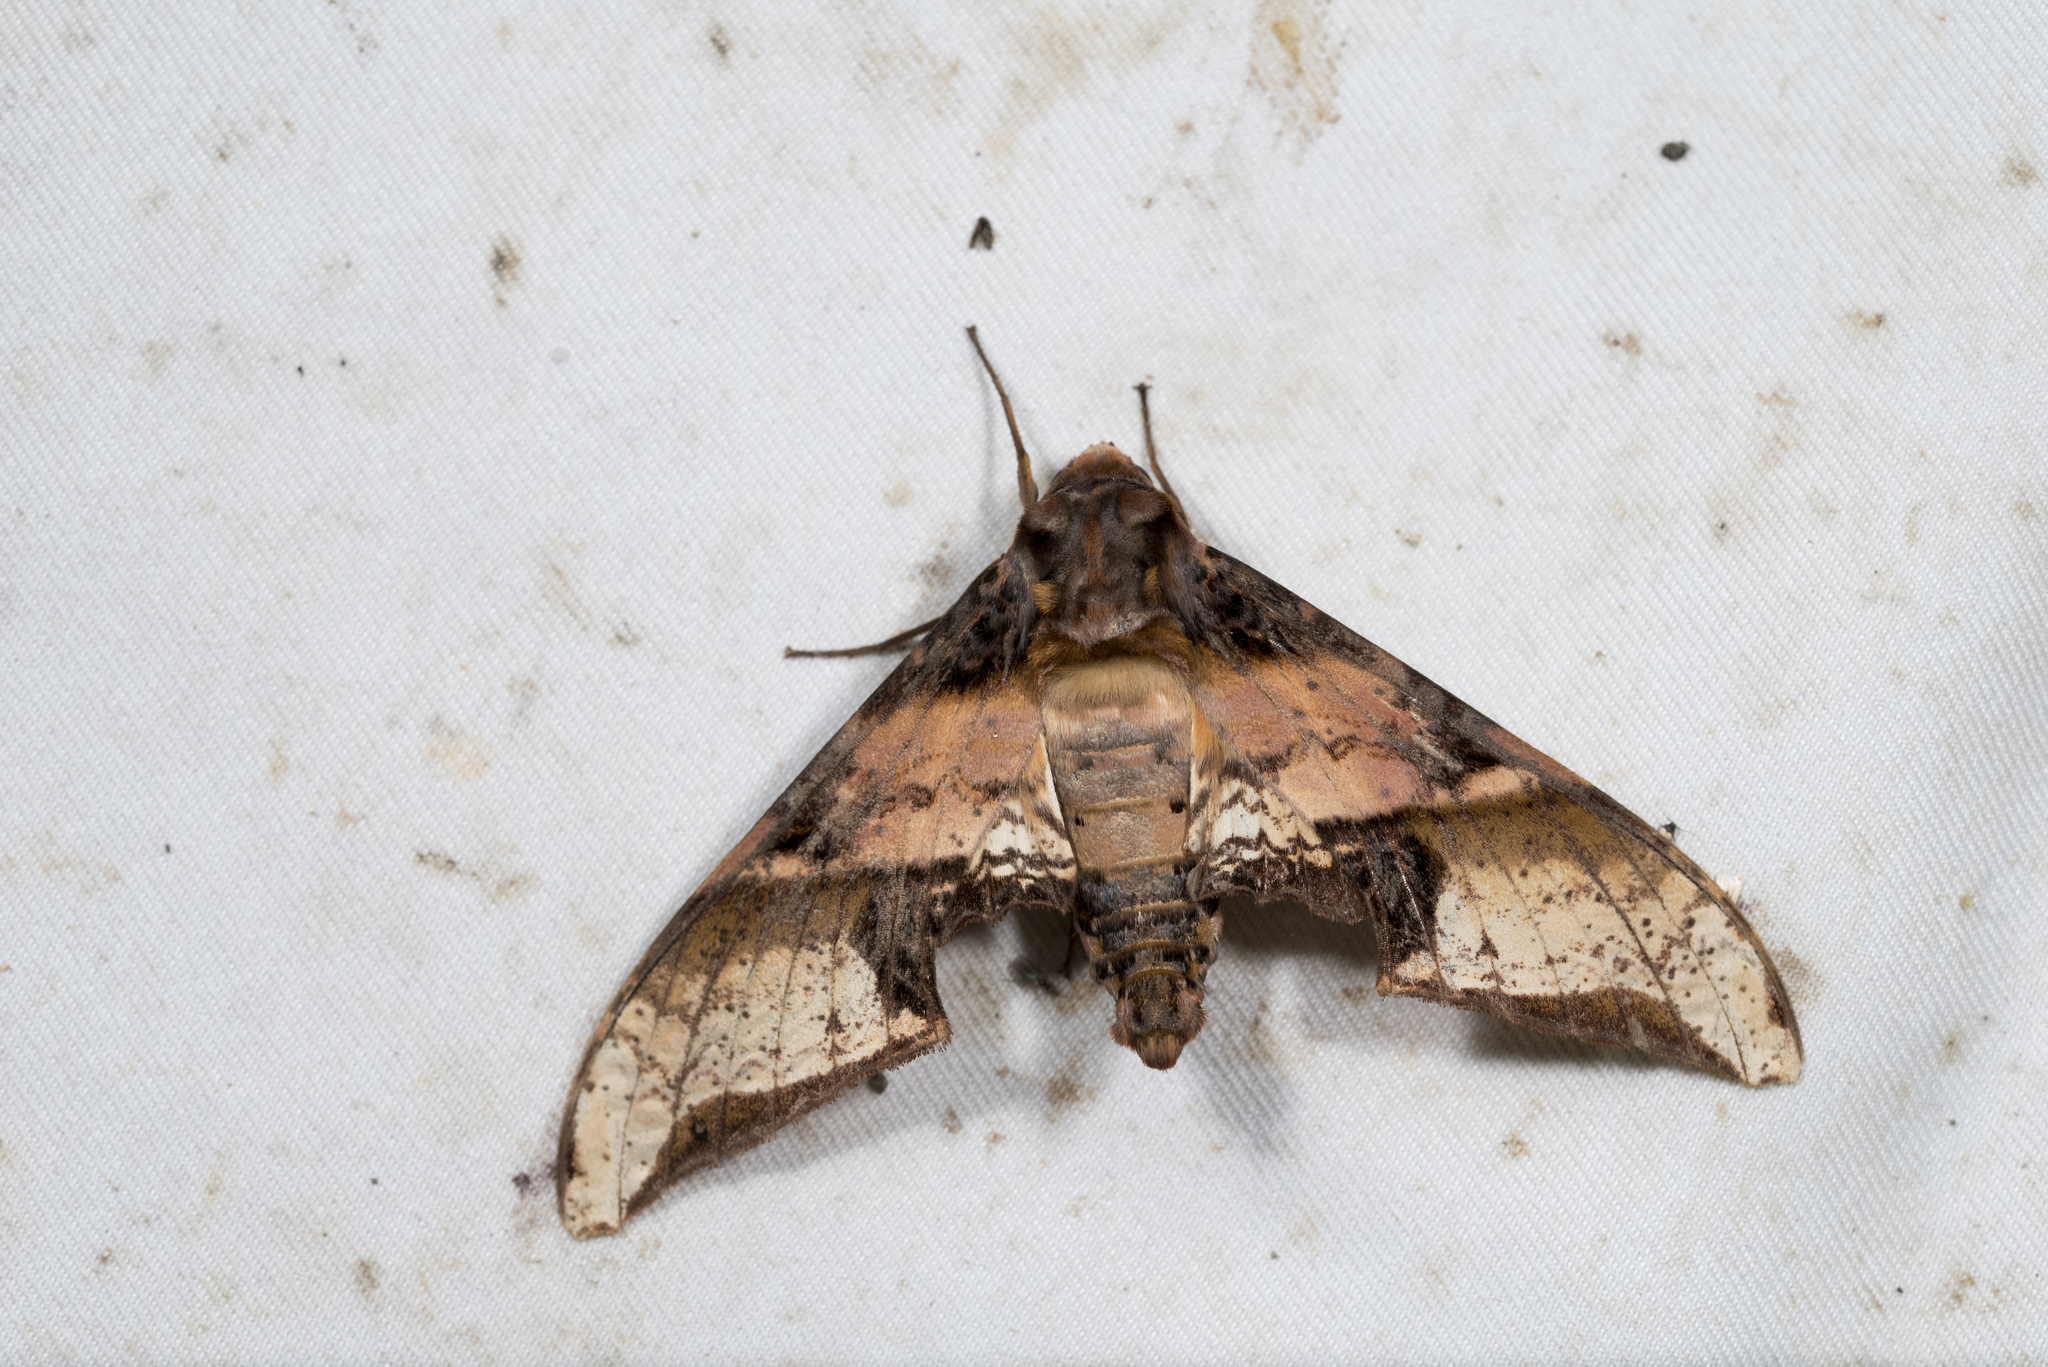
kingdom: Animalia
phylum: Arthropoda
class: Insecta
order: Lepidoptera
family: Sphingidae
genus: Amplypterus
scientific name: Amplypterus mansoni
